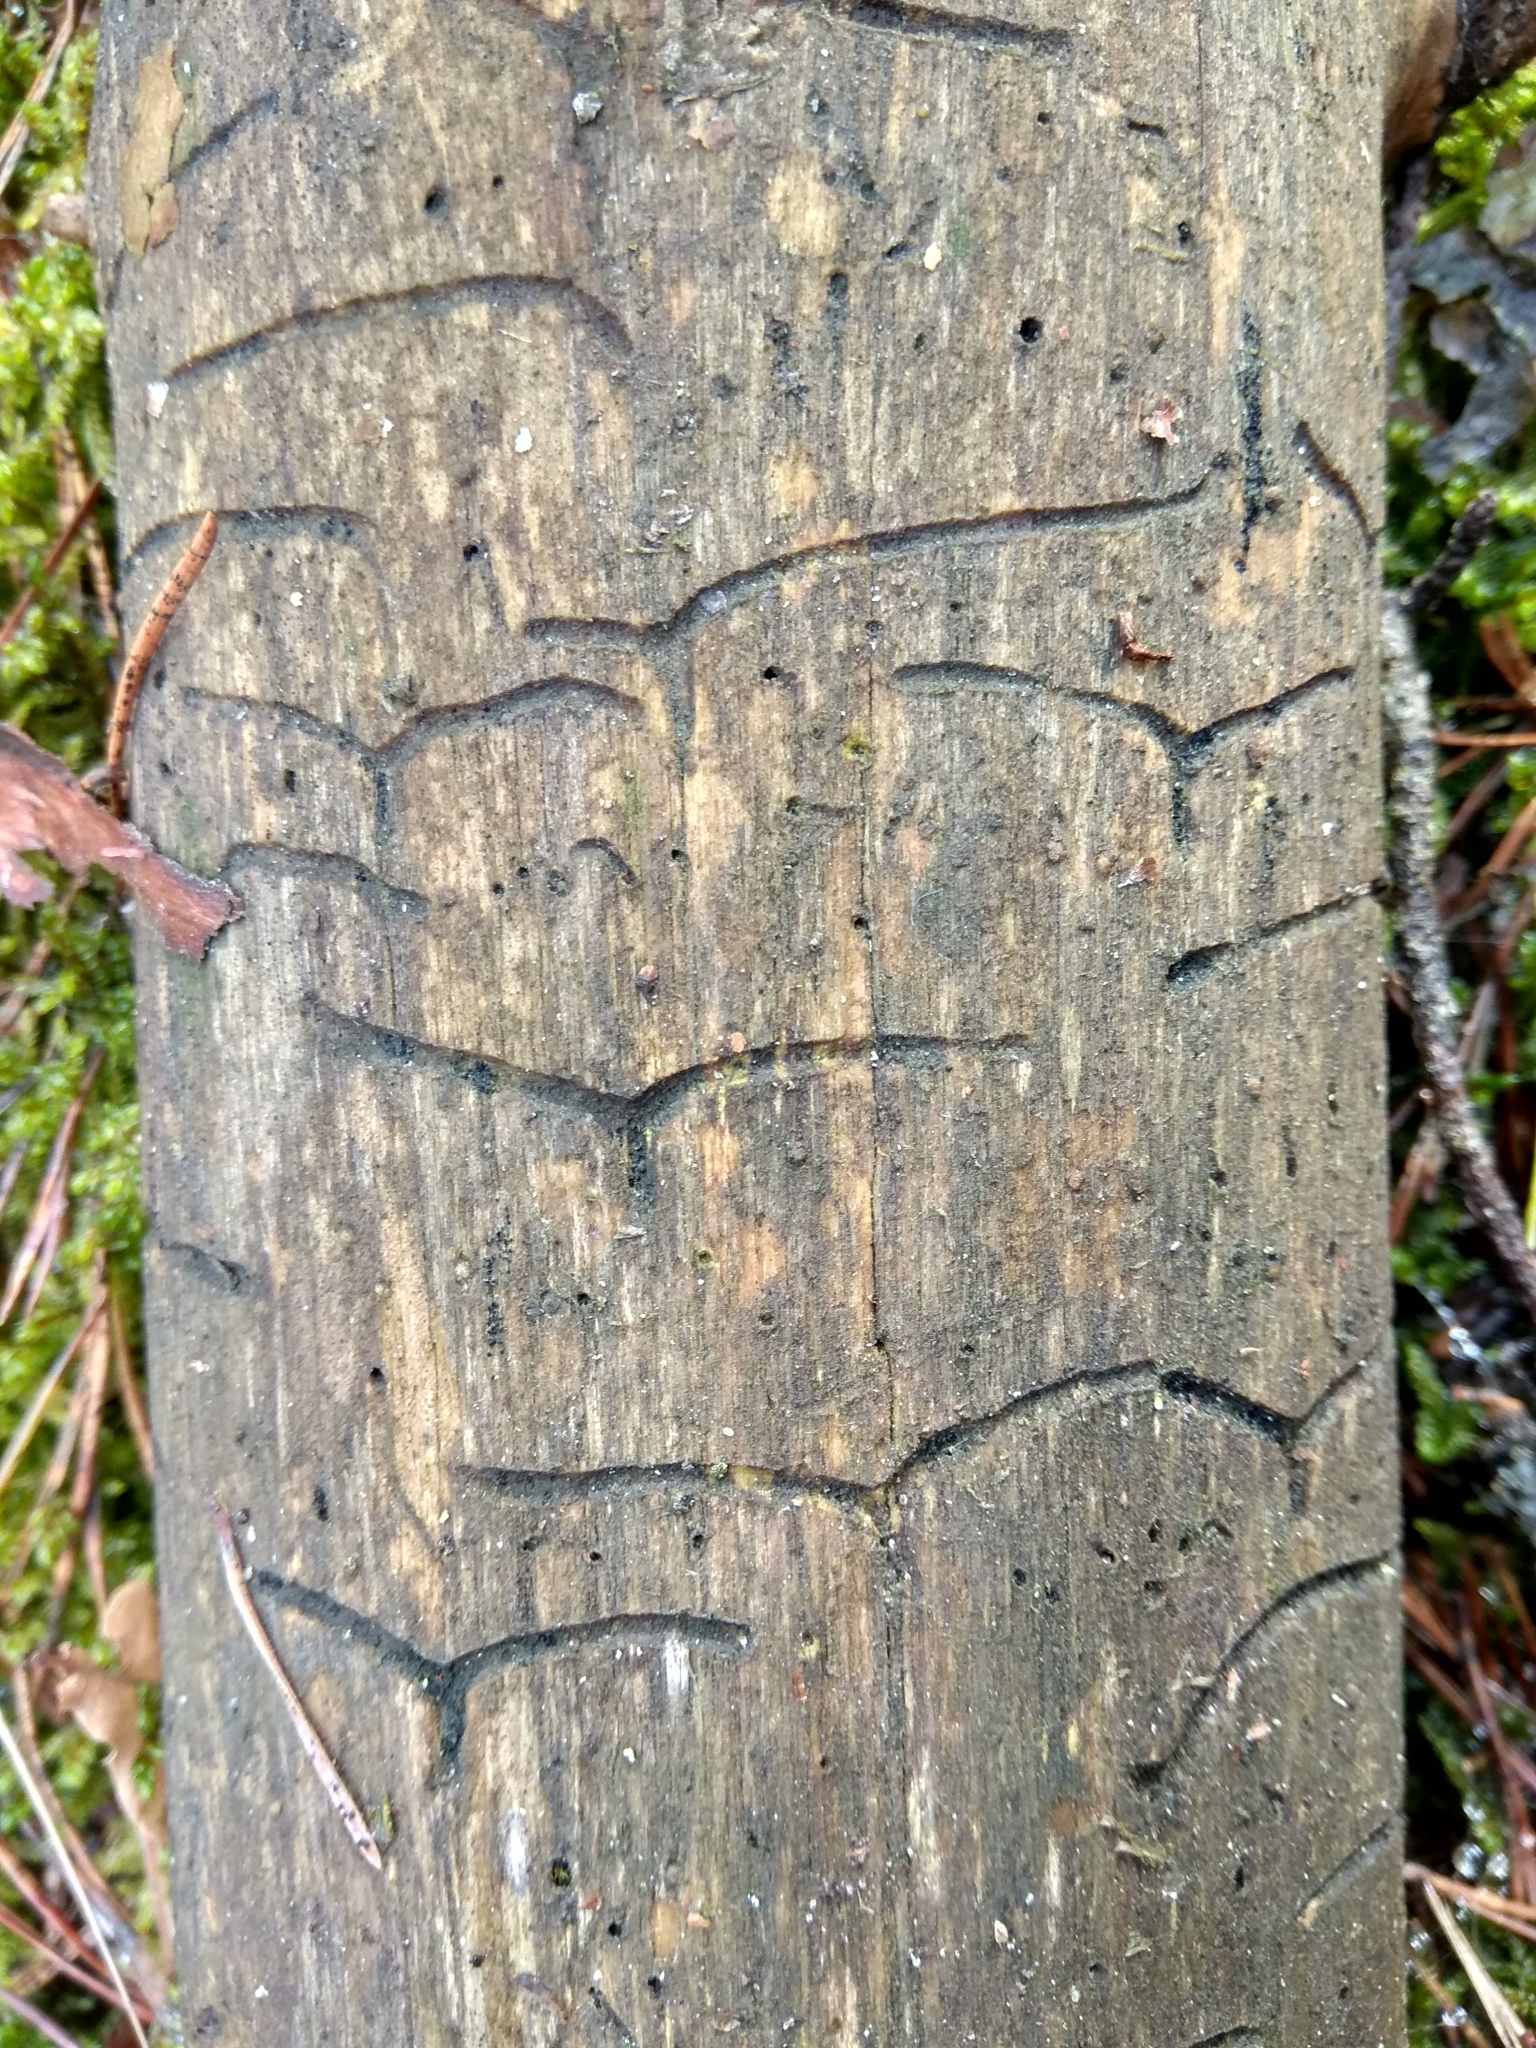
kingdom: Animalia
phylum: Arthropoda
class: Insecta
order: Coleoptera
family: Curculionidae
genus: Tomicus
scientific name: Tomicus minor
